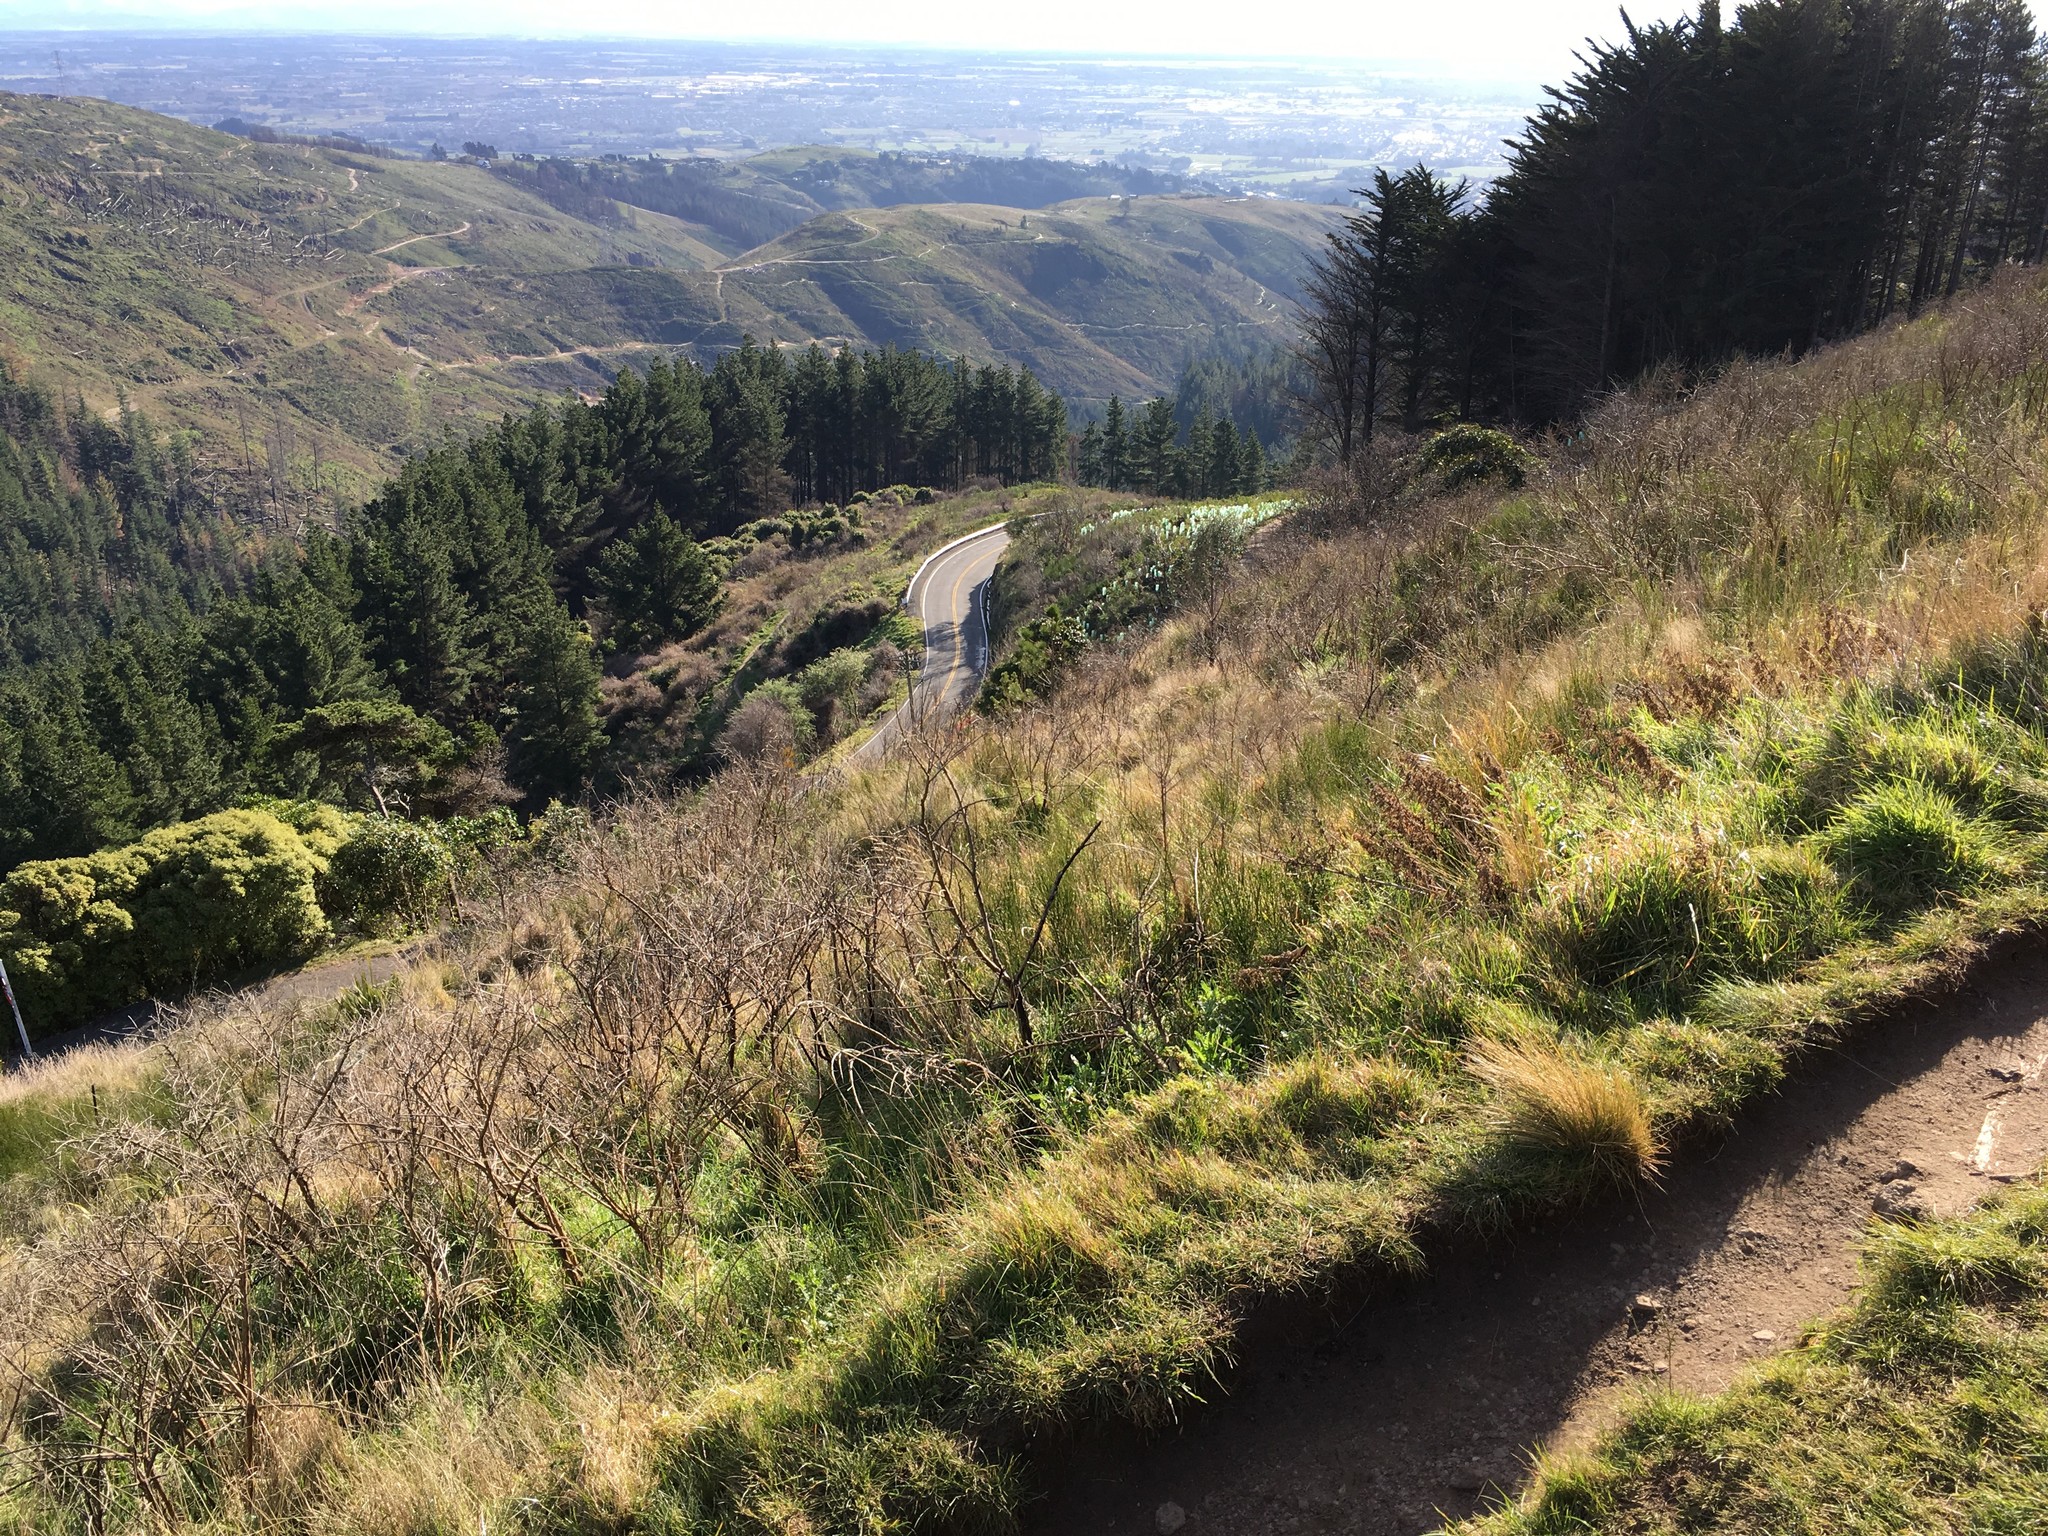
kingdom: Plantae
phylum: Tracheophyta
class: Magnoliopsida
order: Fabales
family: Fabaceae
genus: Cytisus
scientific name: Cytisus scoparius
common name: Scotch broom
